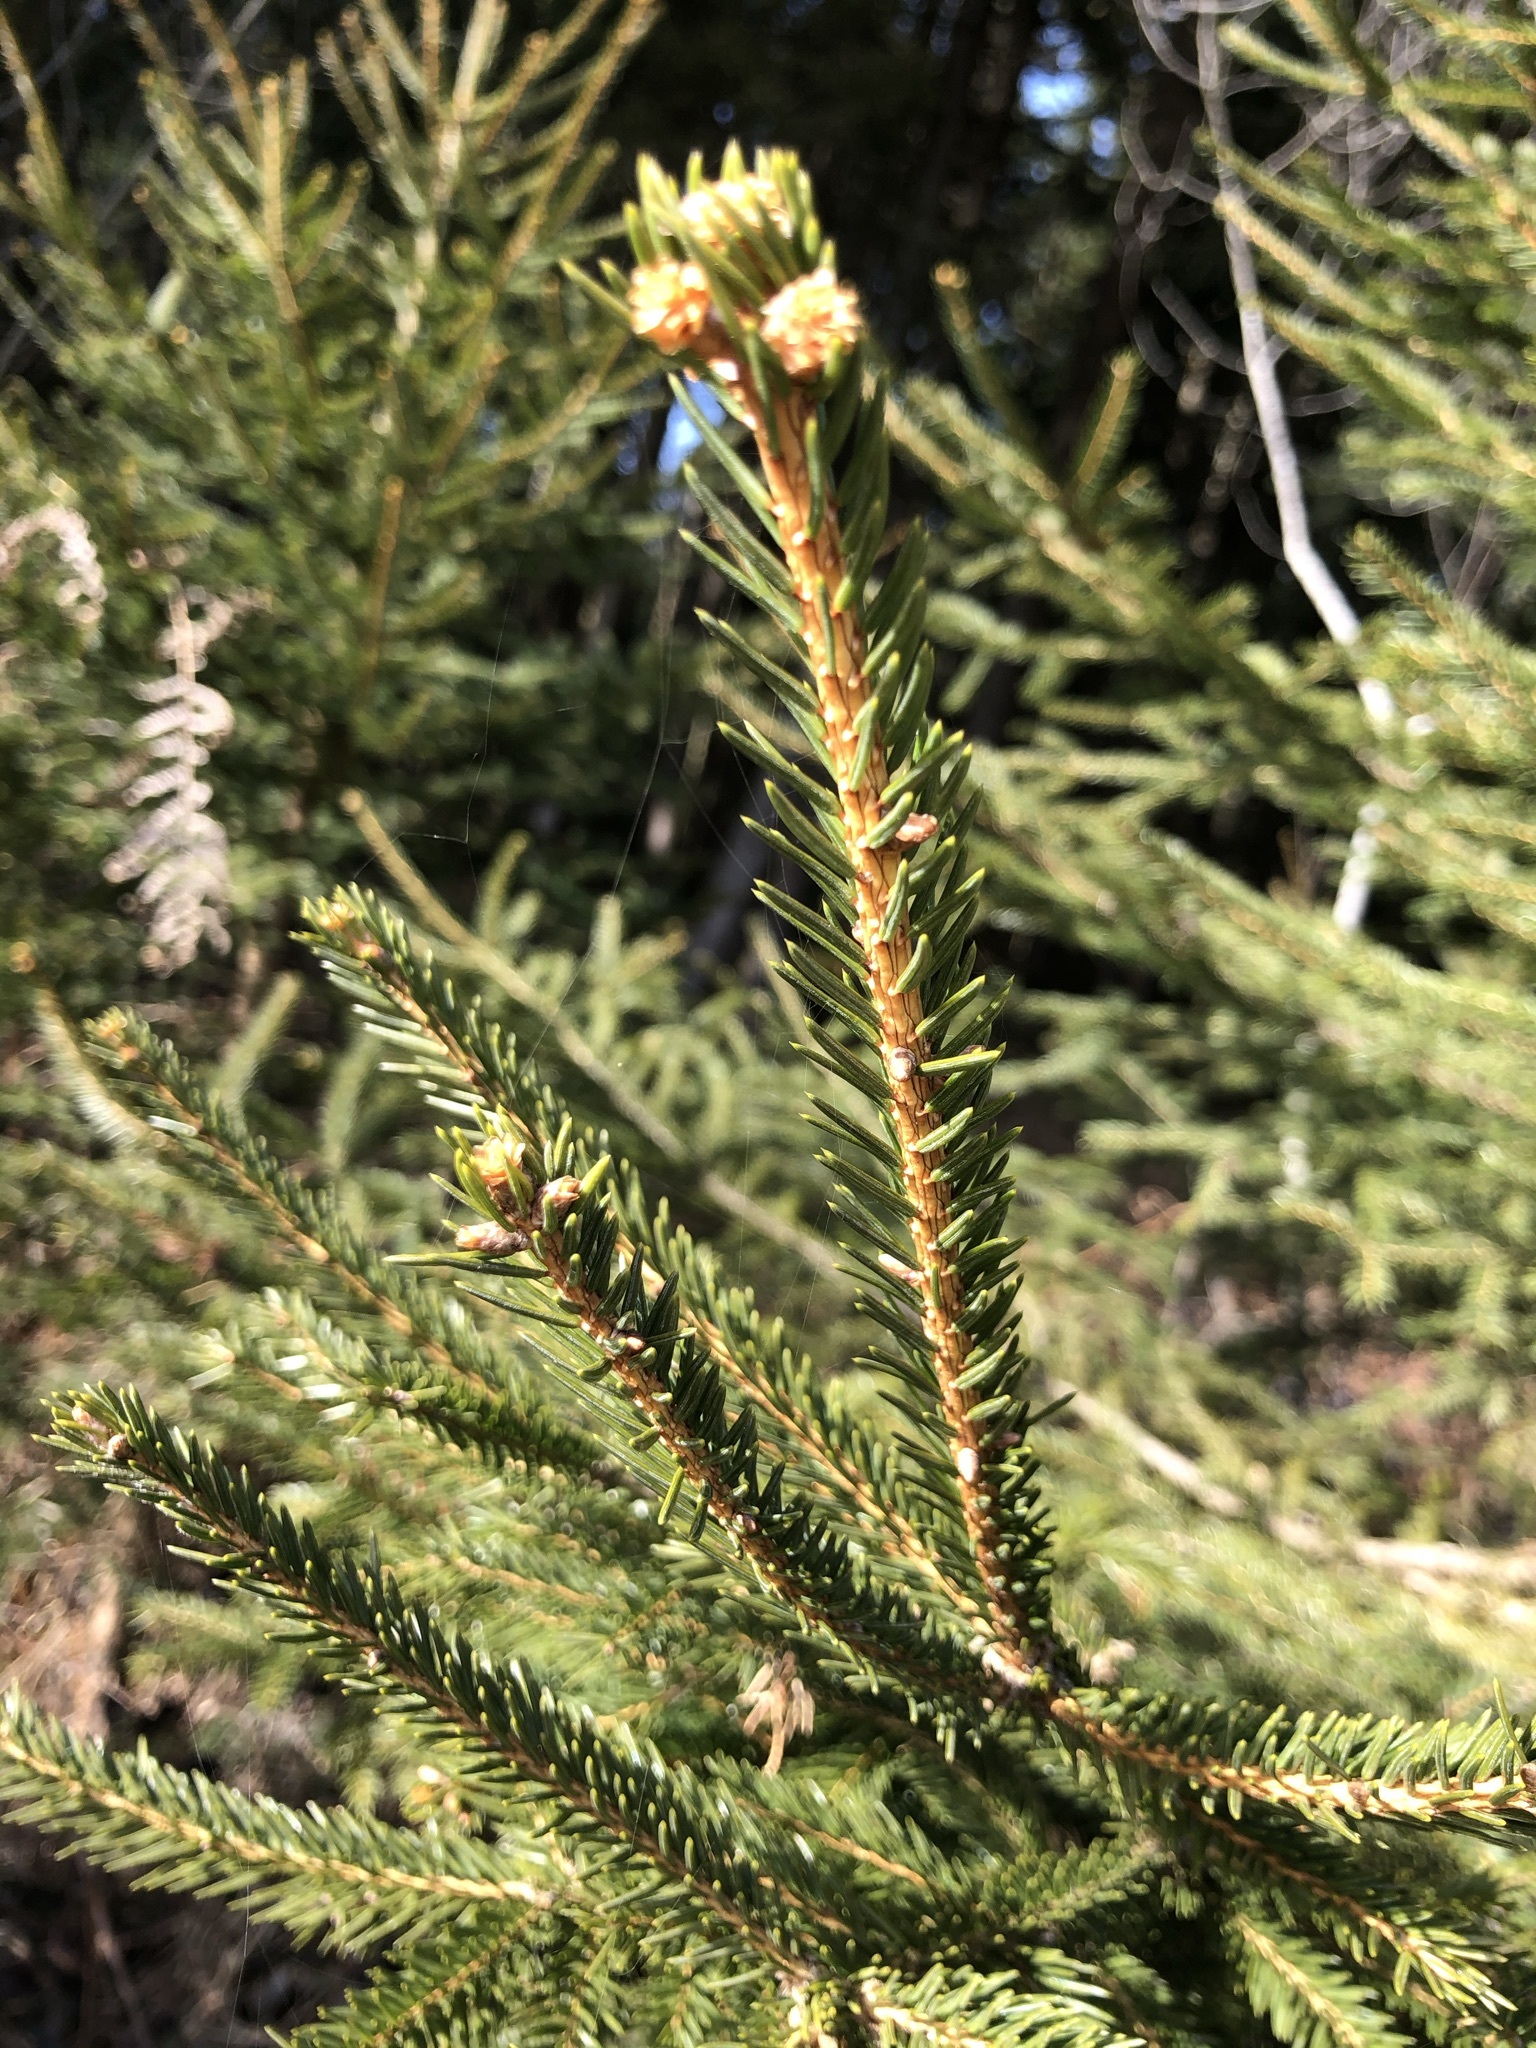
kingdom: Plantae
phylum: Tracheophyta
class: Pinopsida
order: Pinales
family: Pinaceae
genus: Picea
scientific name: Picea abies
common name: Norway spruce
